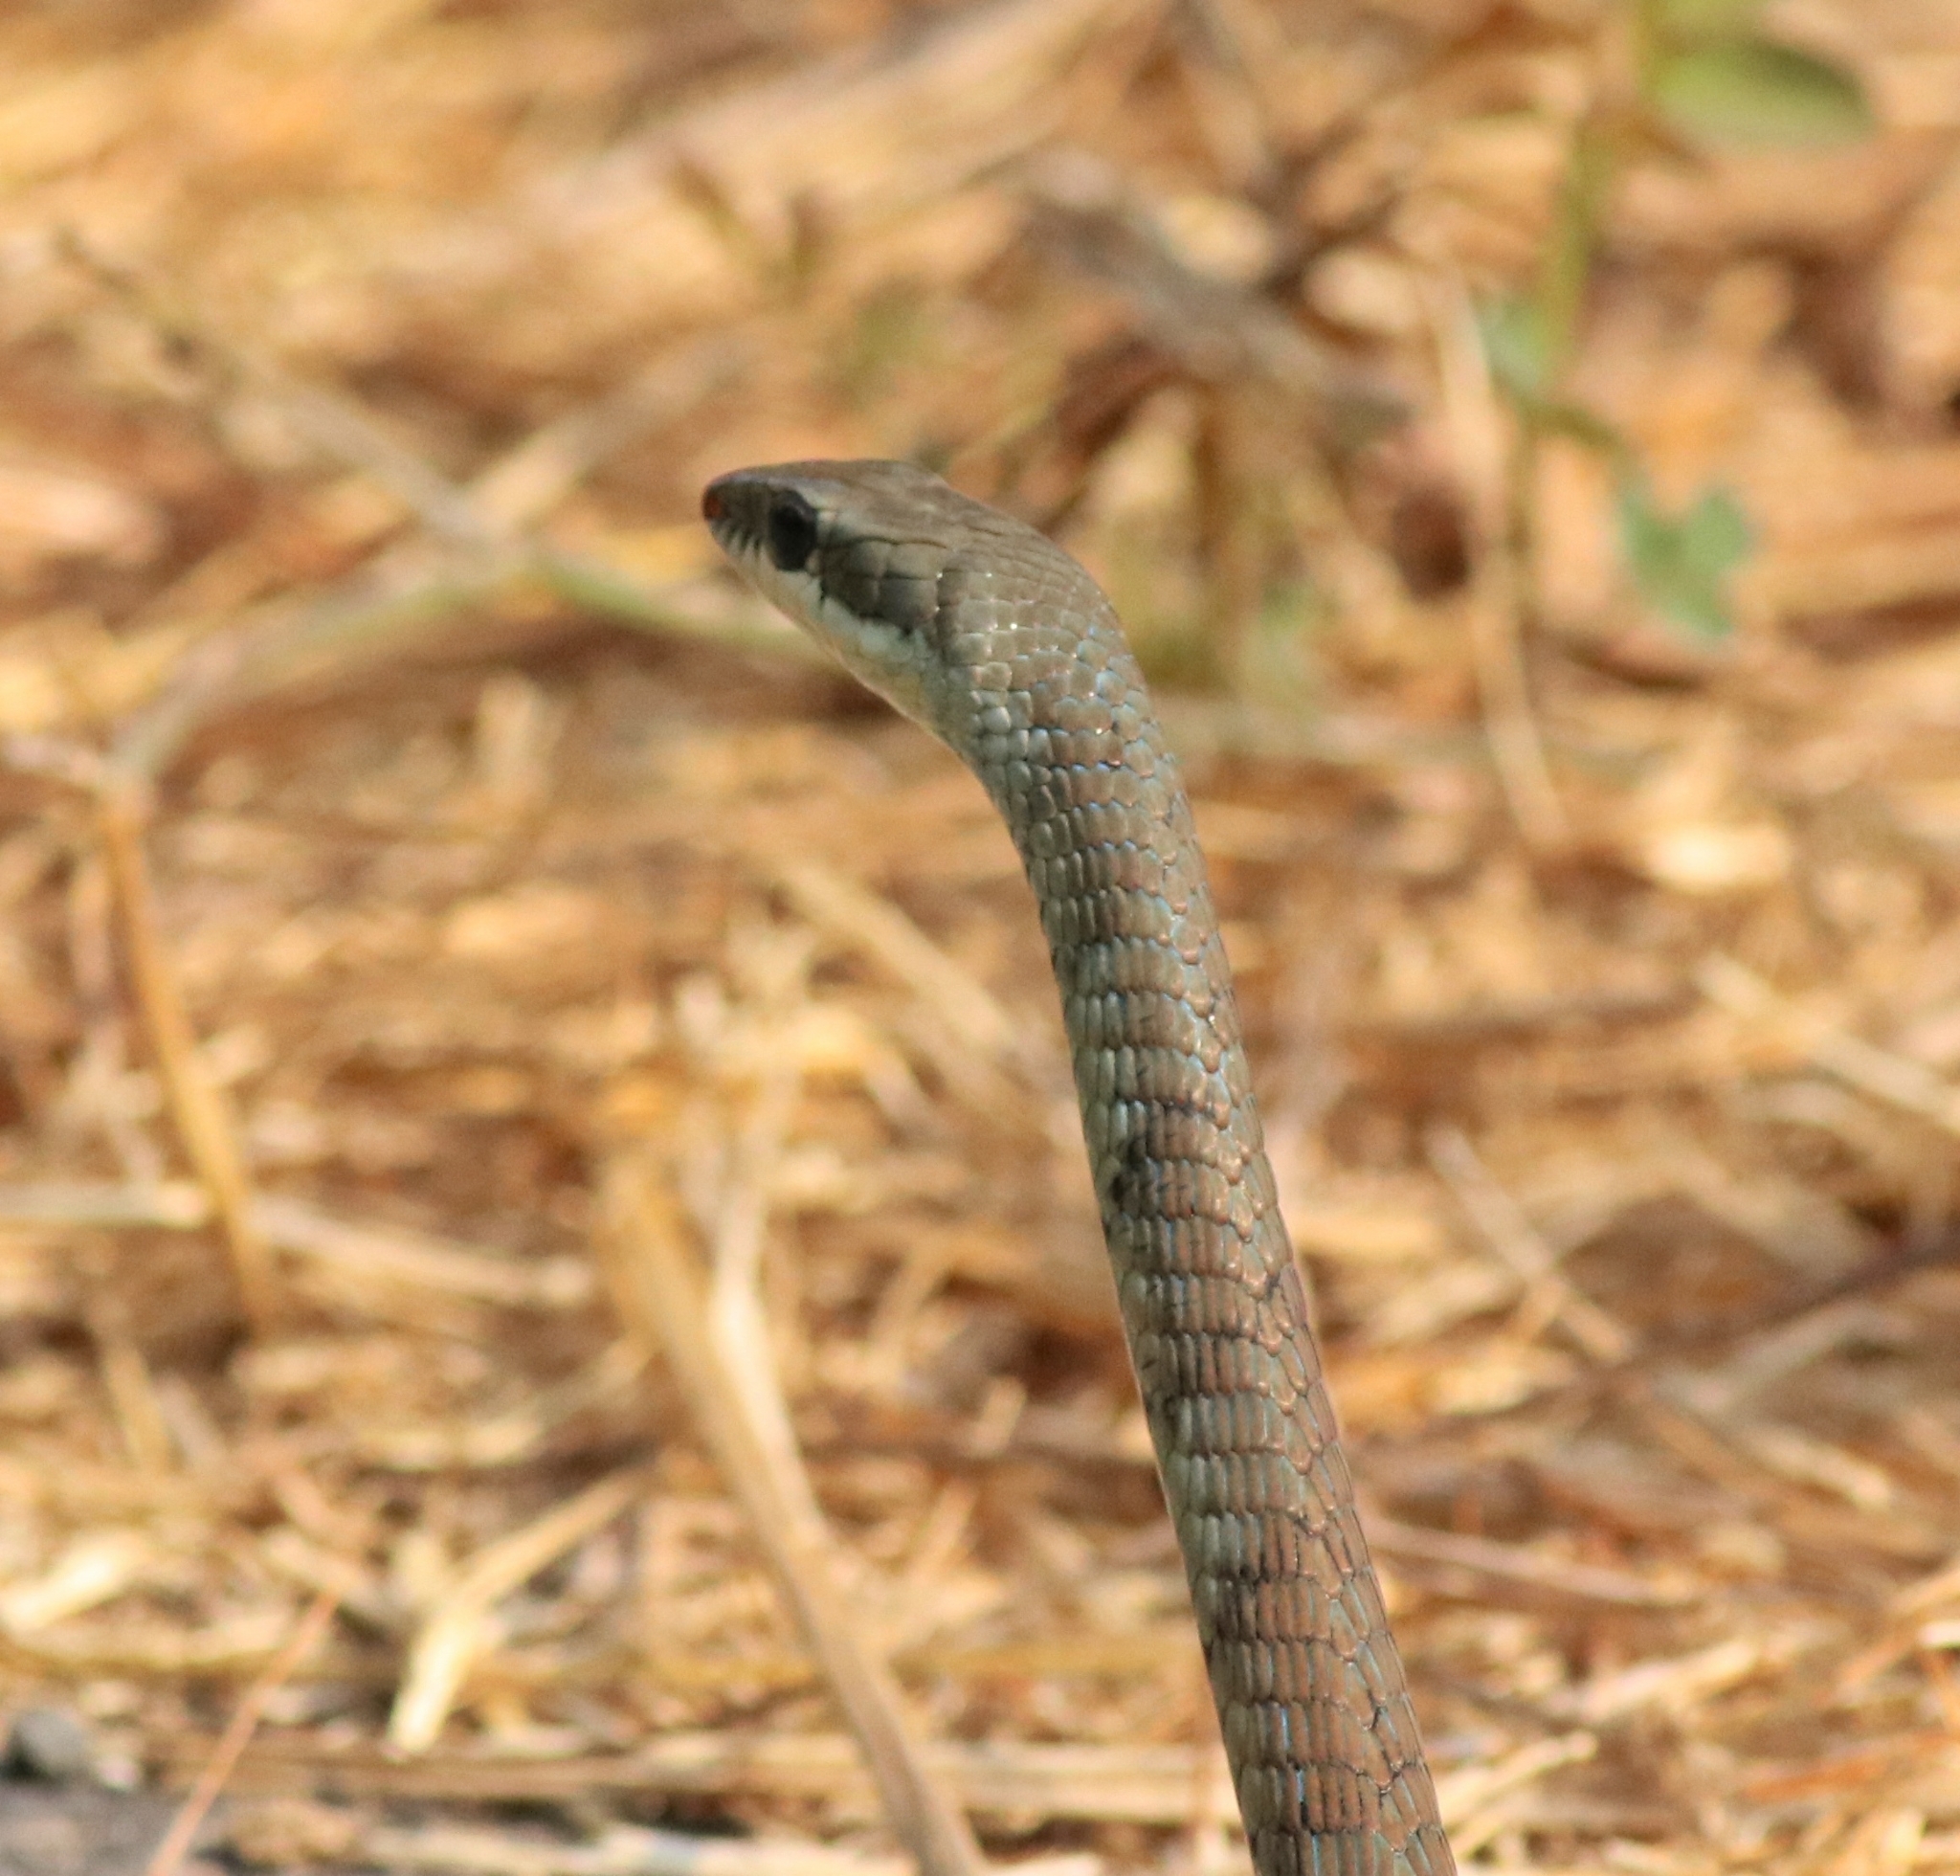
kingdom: Animalia
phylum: Chordata
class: Squamata
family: Colubridae
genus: Dendrelaphis
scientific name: Dendrelaphis chairecacos
